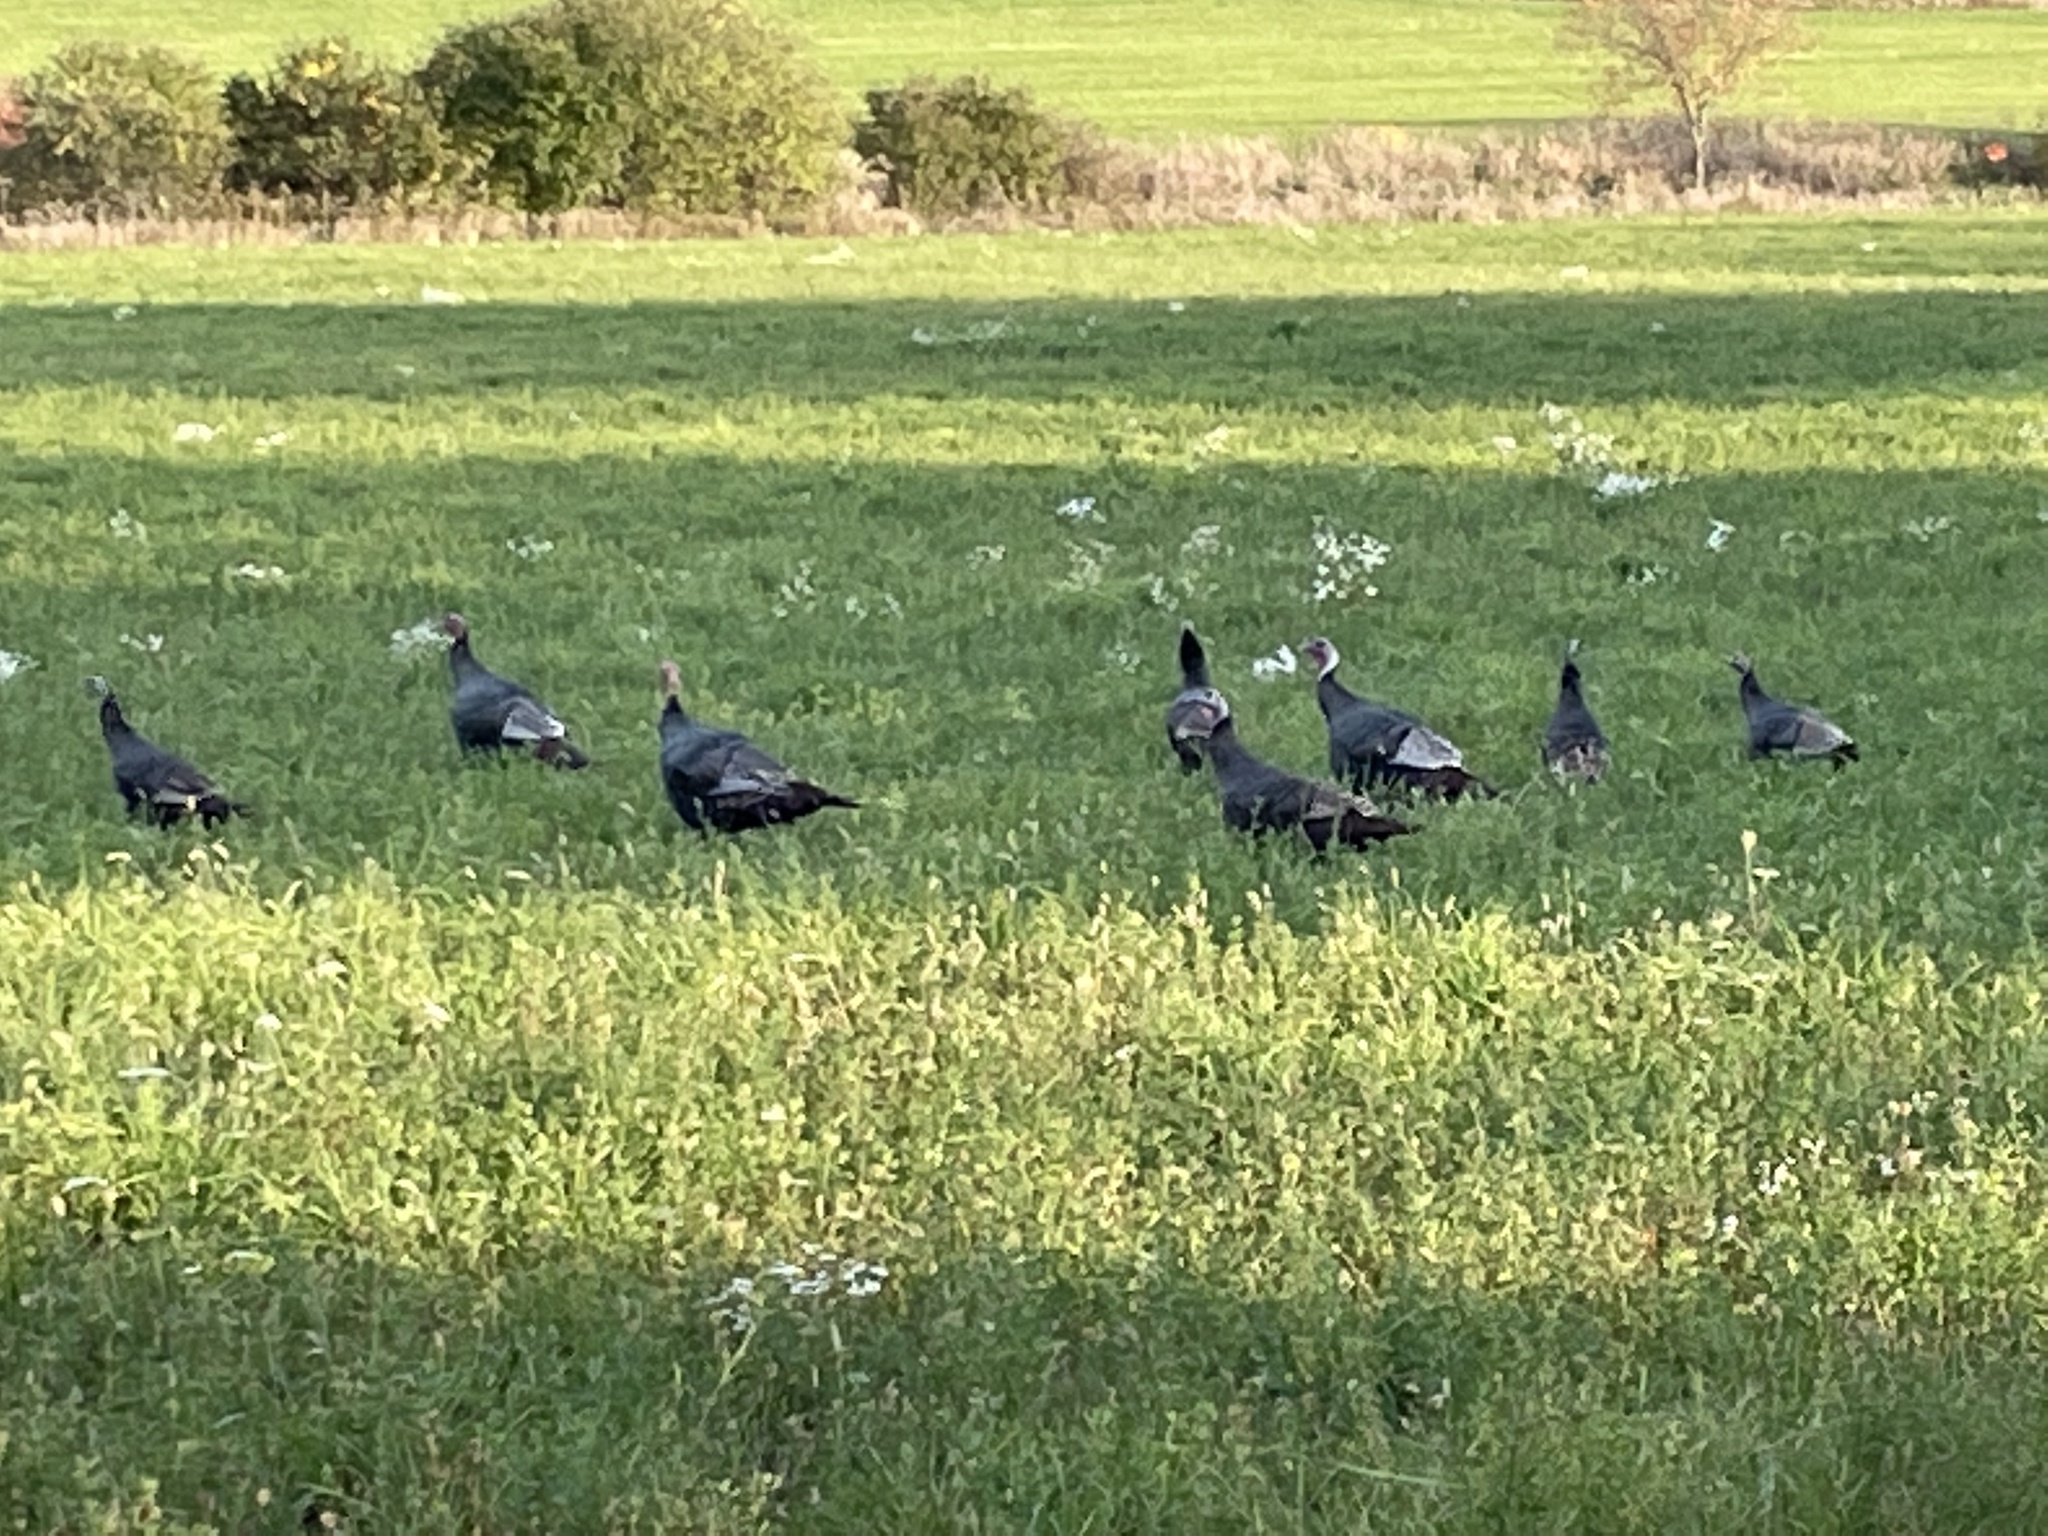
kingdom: Animalia
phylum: Chordata
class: Aves
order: Galliformes
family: Phasianidae
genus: Meleagris
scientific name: Meleagris gallopavo
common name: Wild turkey
